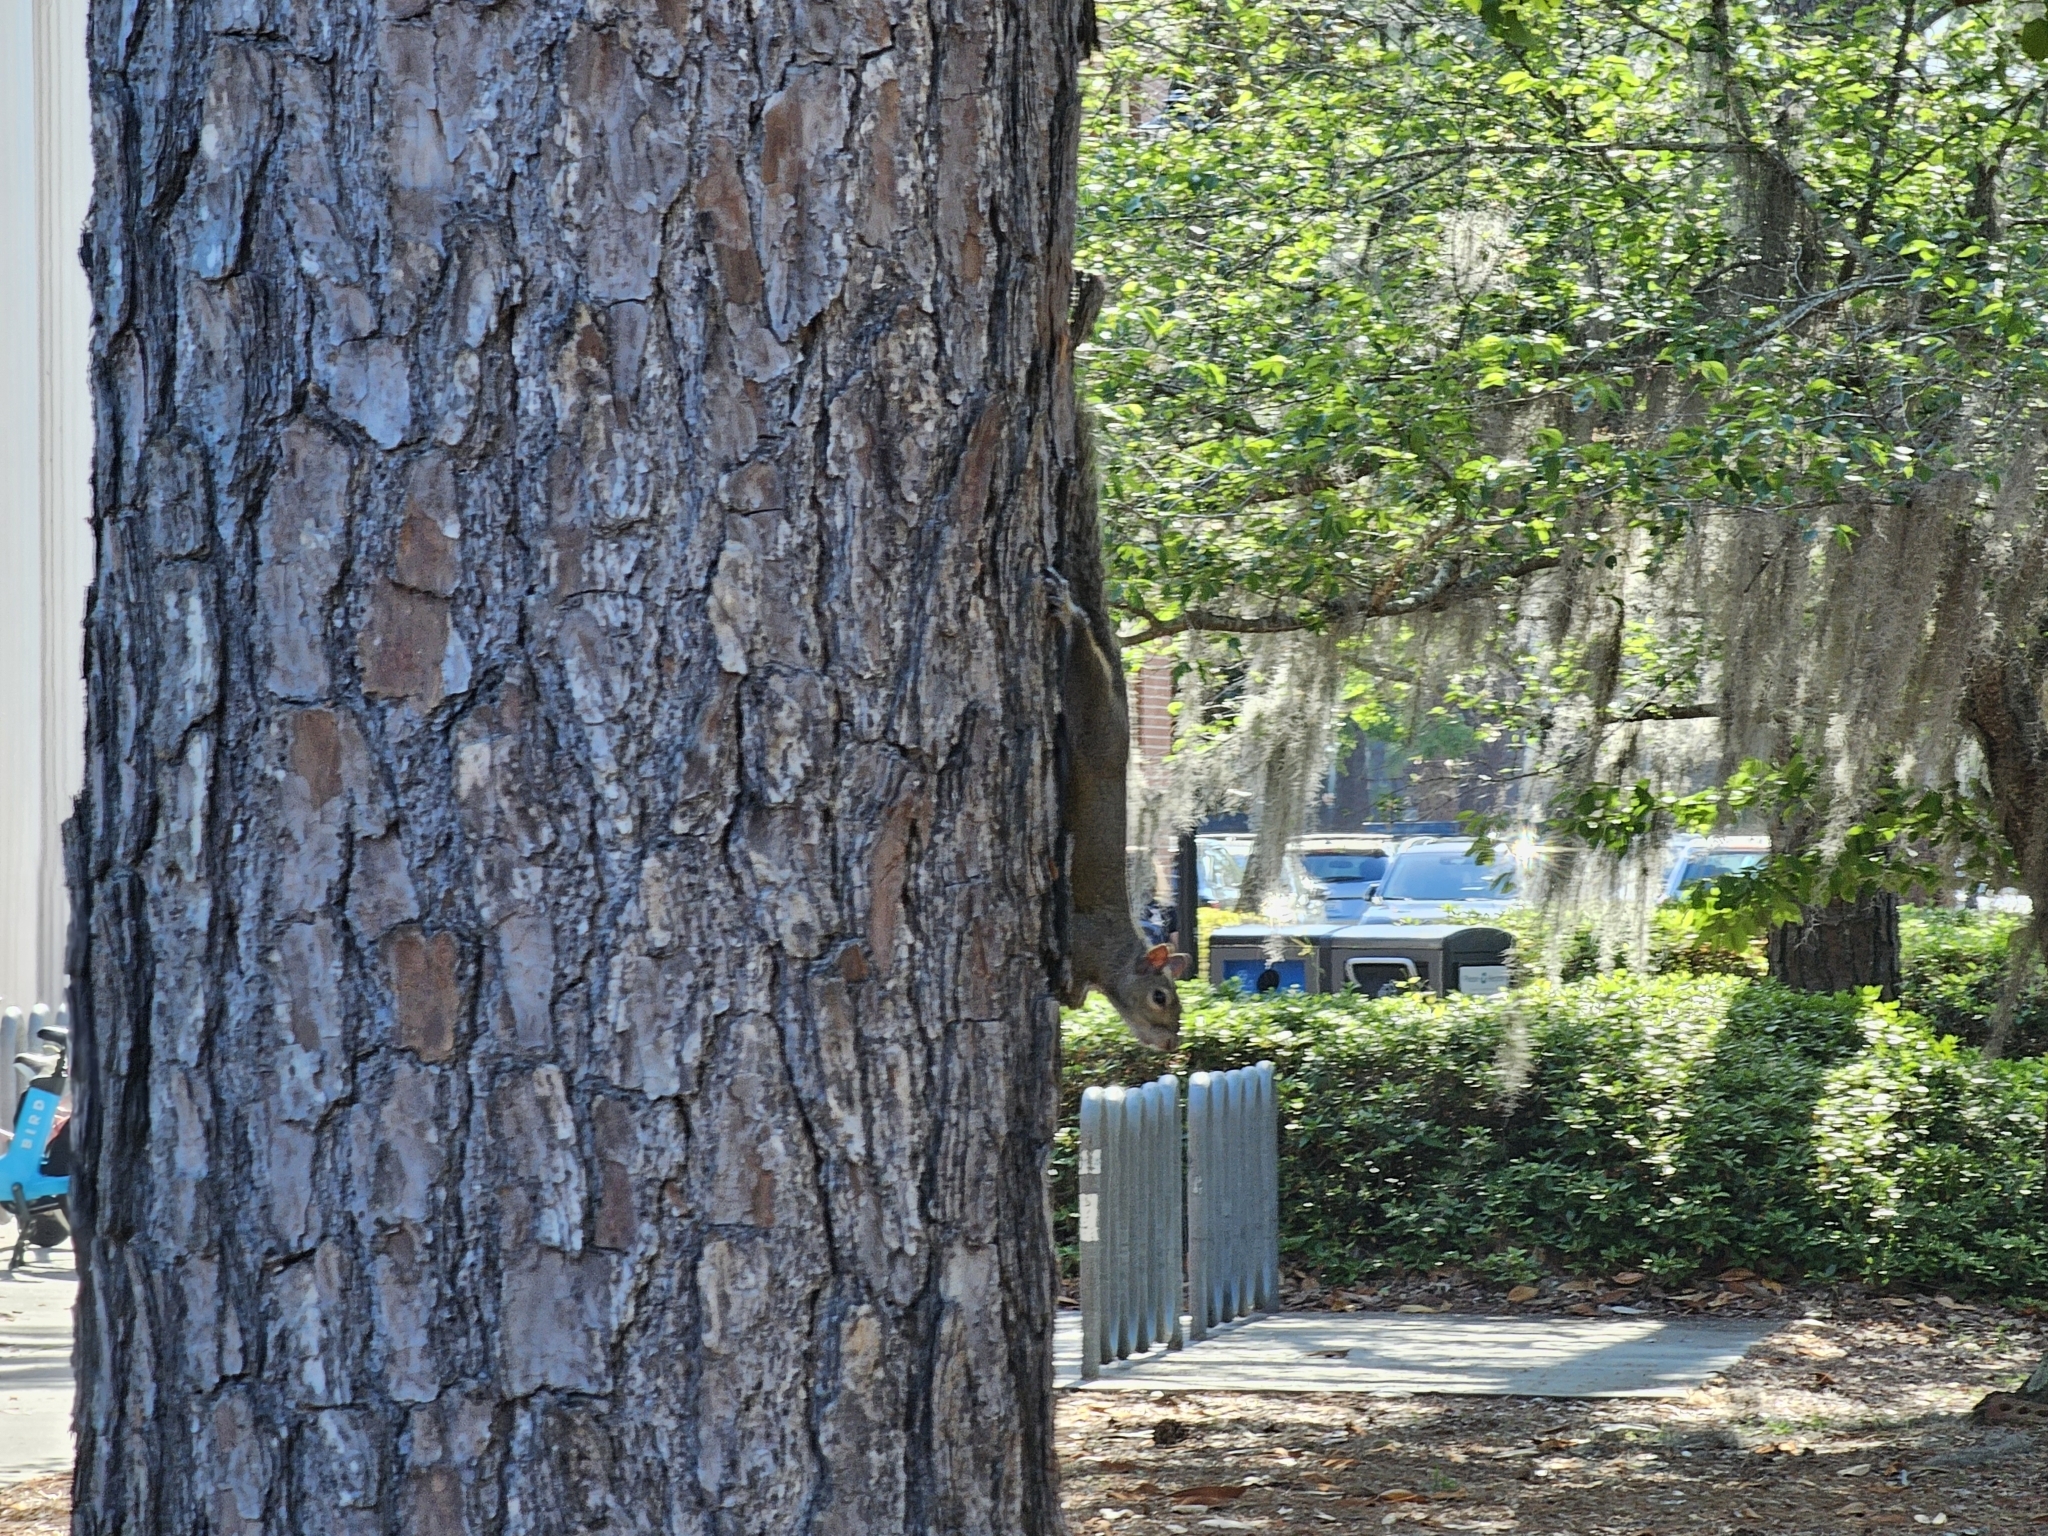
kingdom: Animalia
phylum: Chordata
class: Mammalia
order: Rodentia
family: Sciuridae
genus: Sciurus
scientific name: Sciurus carolinensis
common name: Eastern gray squirrel
